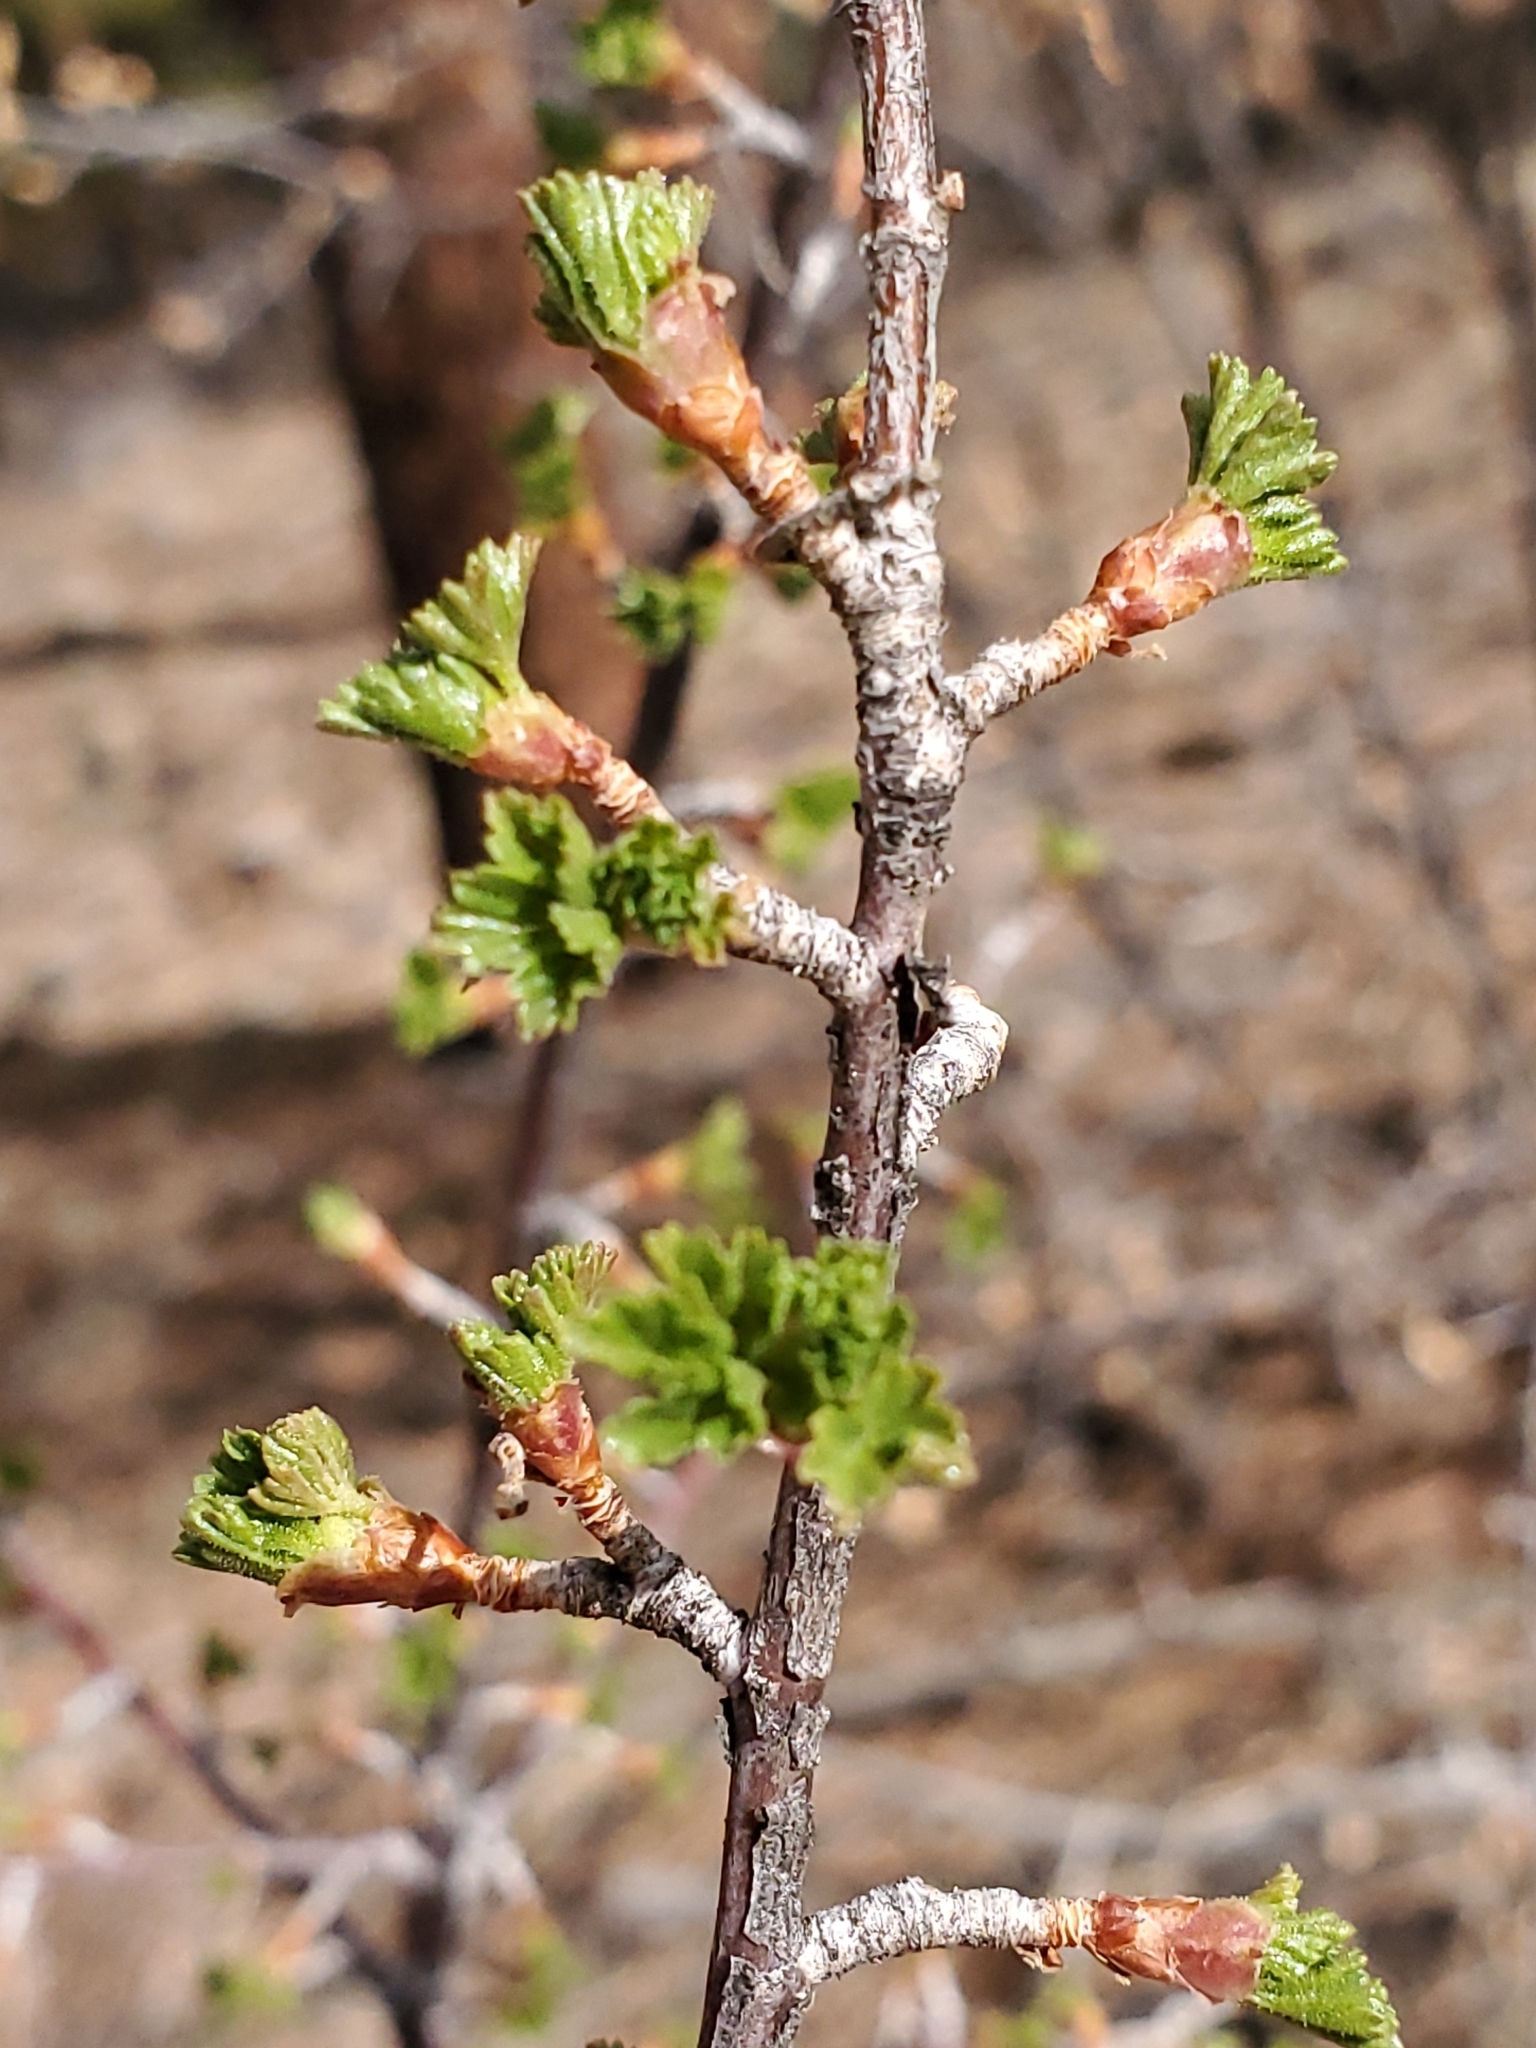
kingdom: Plantae
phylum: Tracheophyta
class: Magnoliopsida
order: Saxifragales
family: Grossulariaceae
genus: Ribes
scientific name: Ribes cereum
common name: Wax currant
